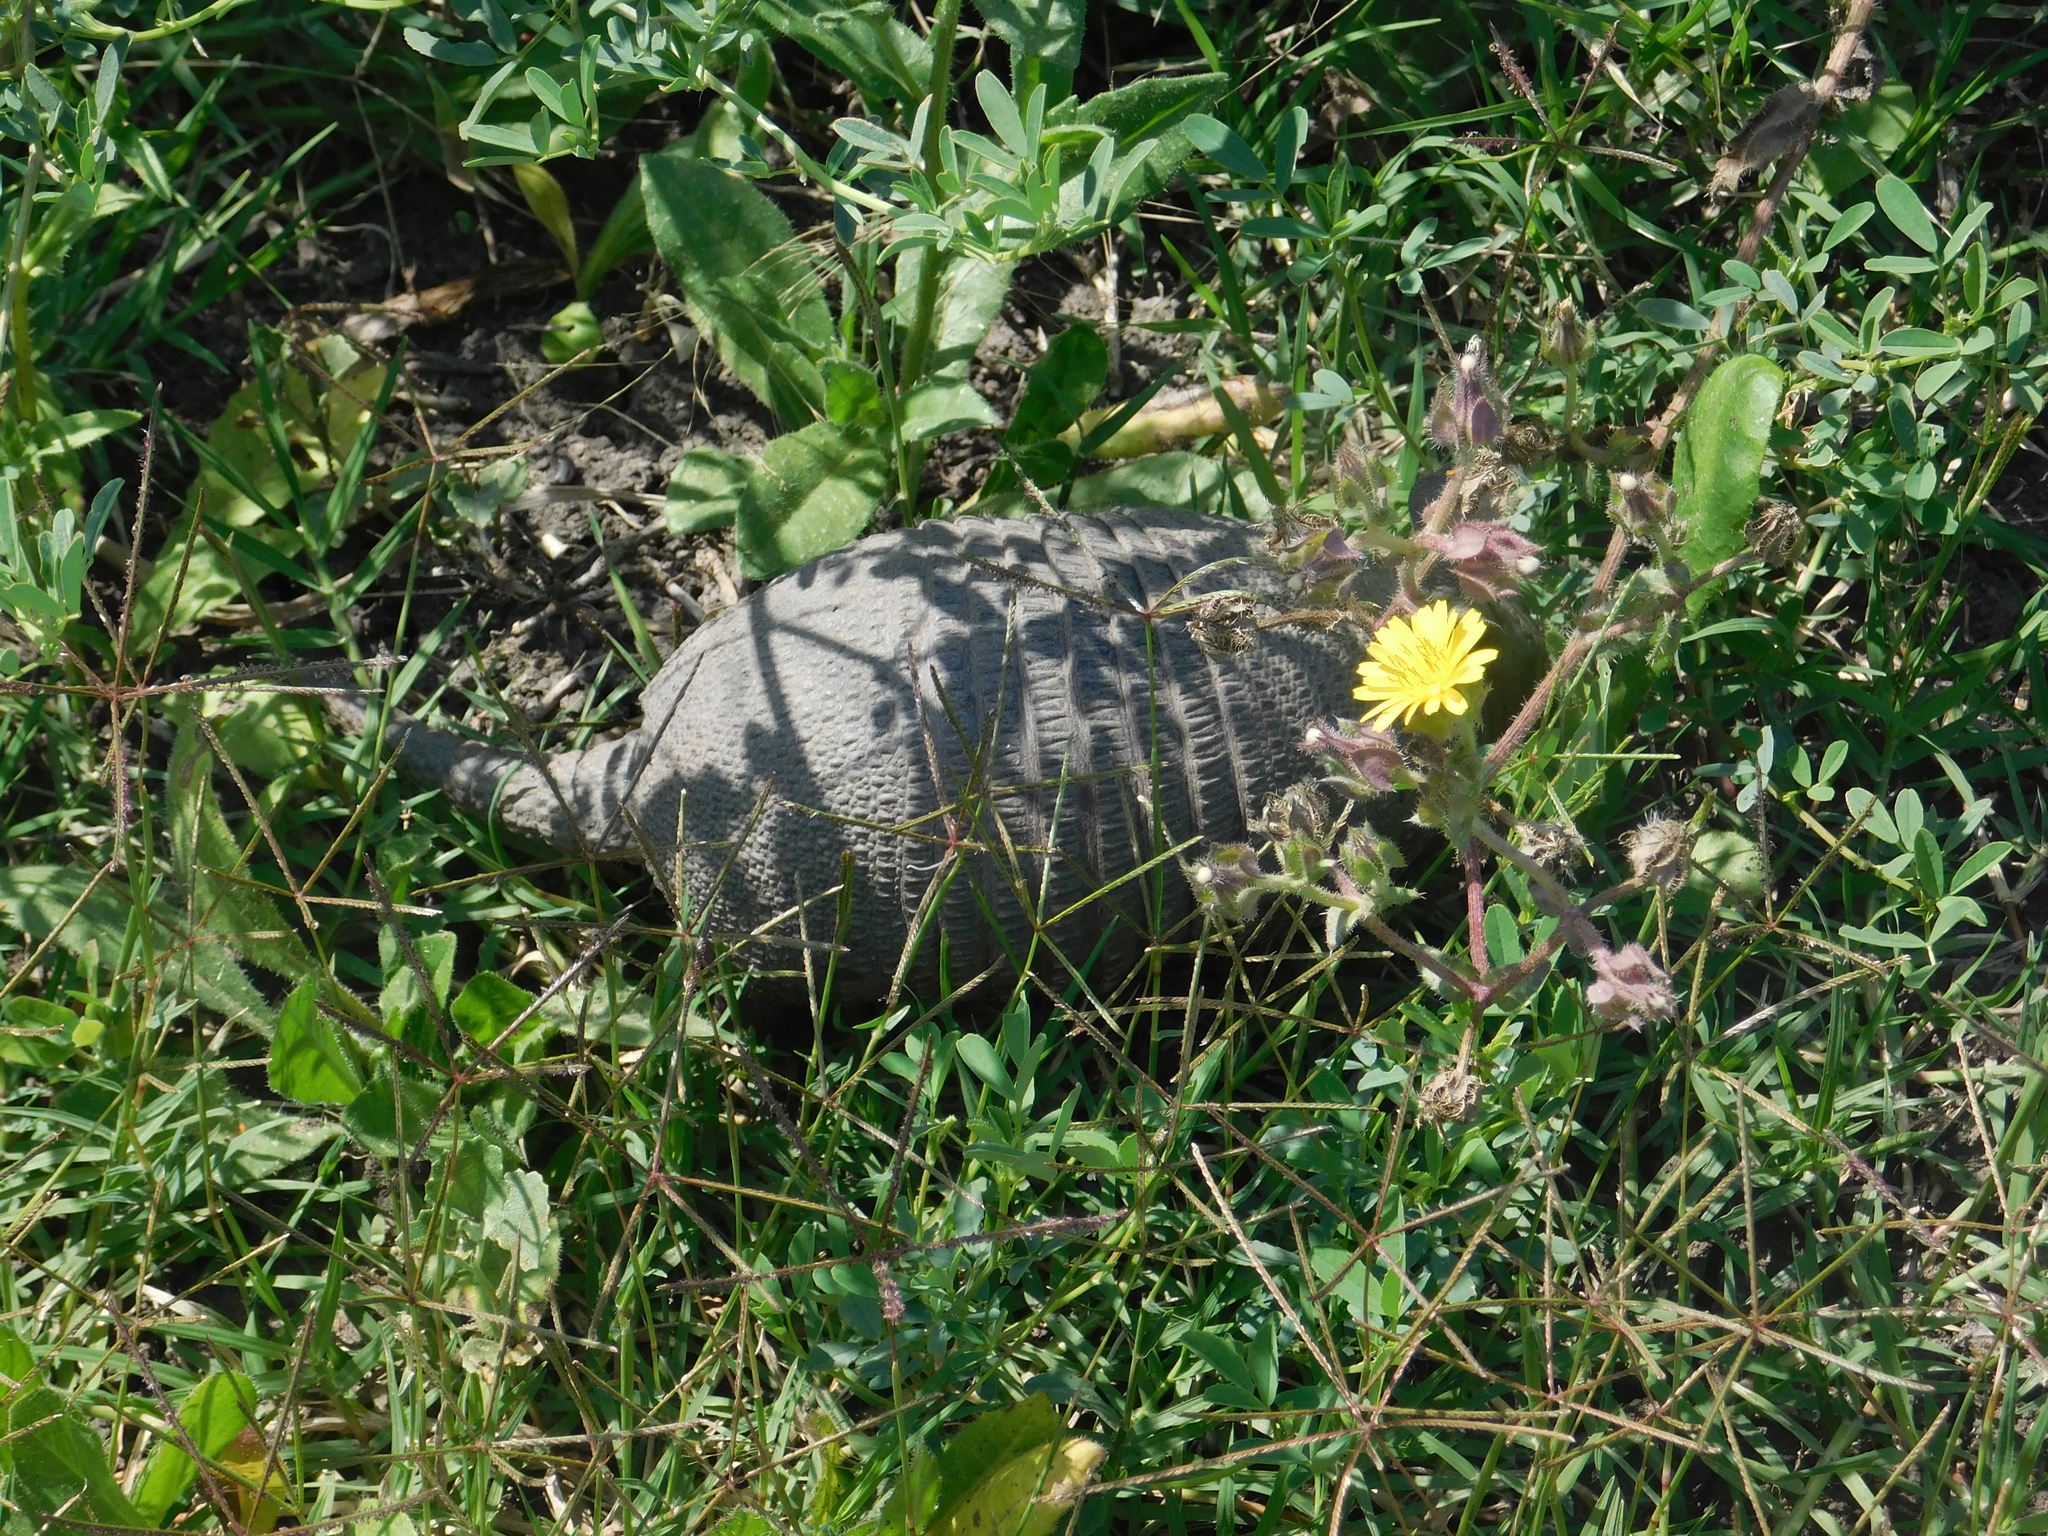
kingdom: Animalia
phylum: Chordata
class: Mammalia
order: Cingulata
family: Dasypodidae
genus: Dasypus
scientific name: Dasypus septemcinctus
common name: Seven-banded armadillo
